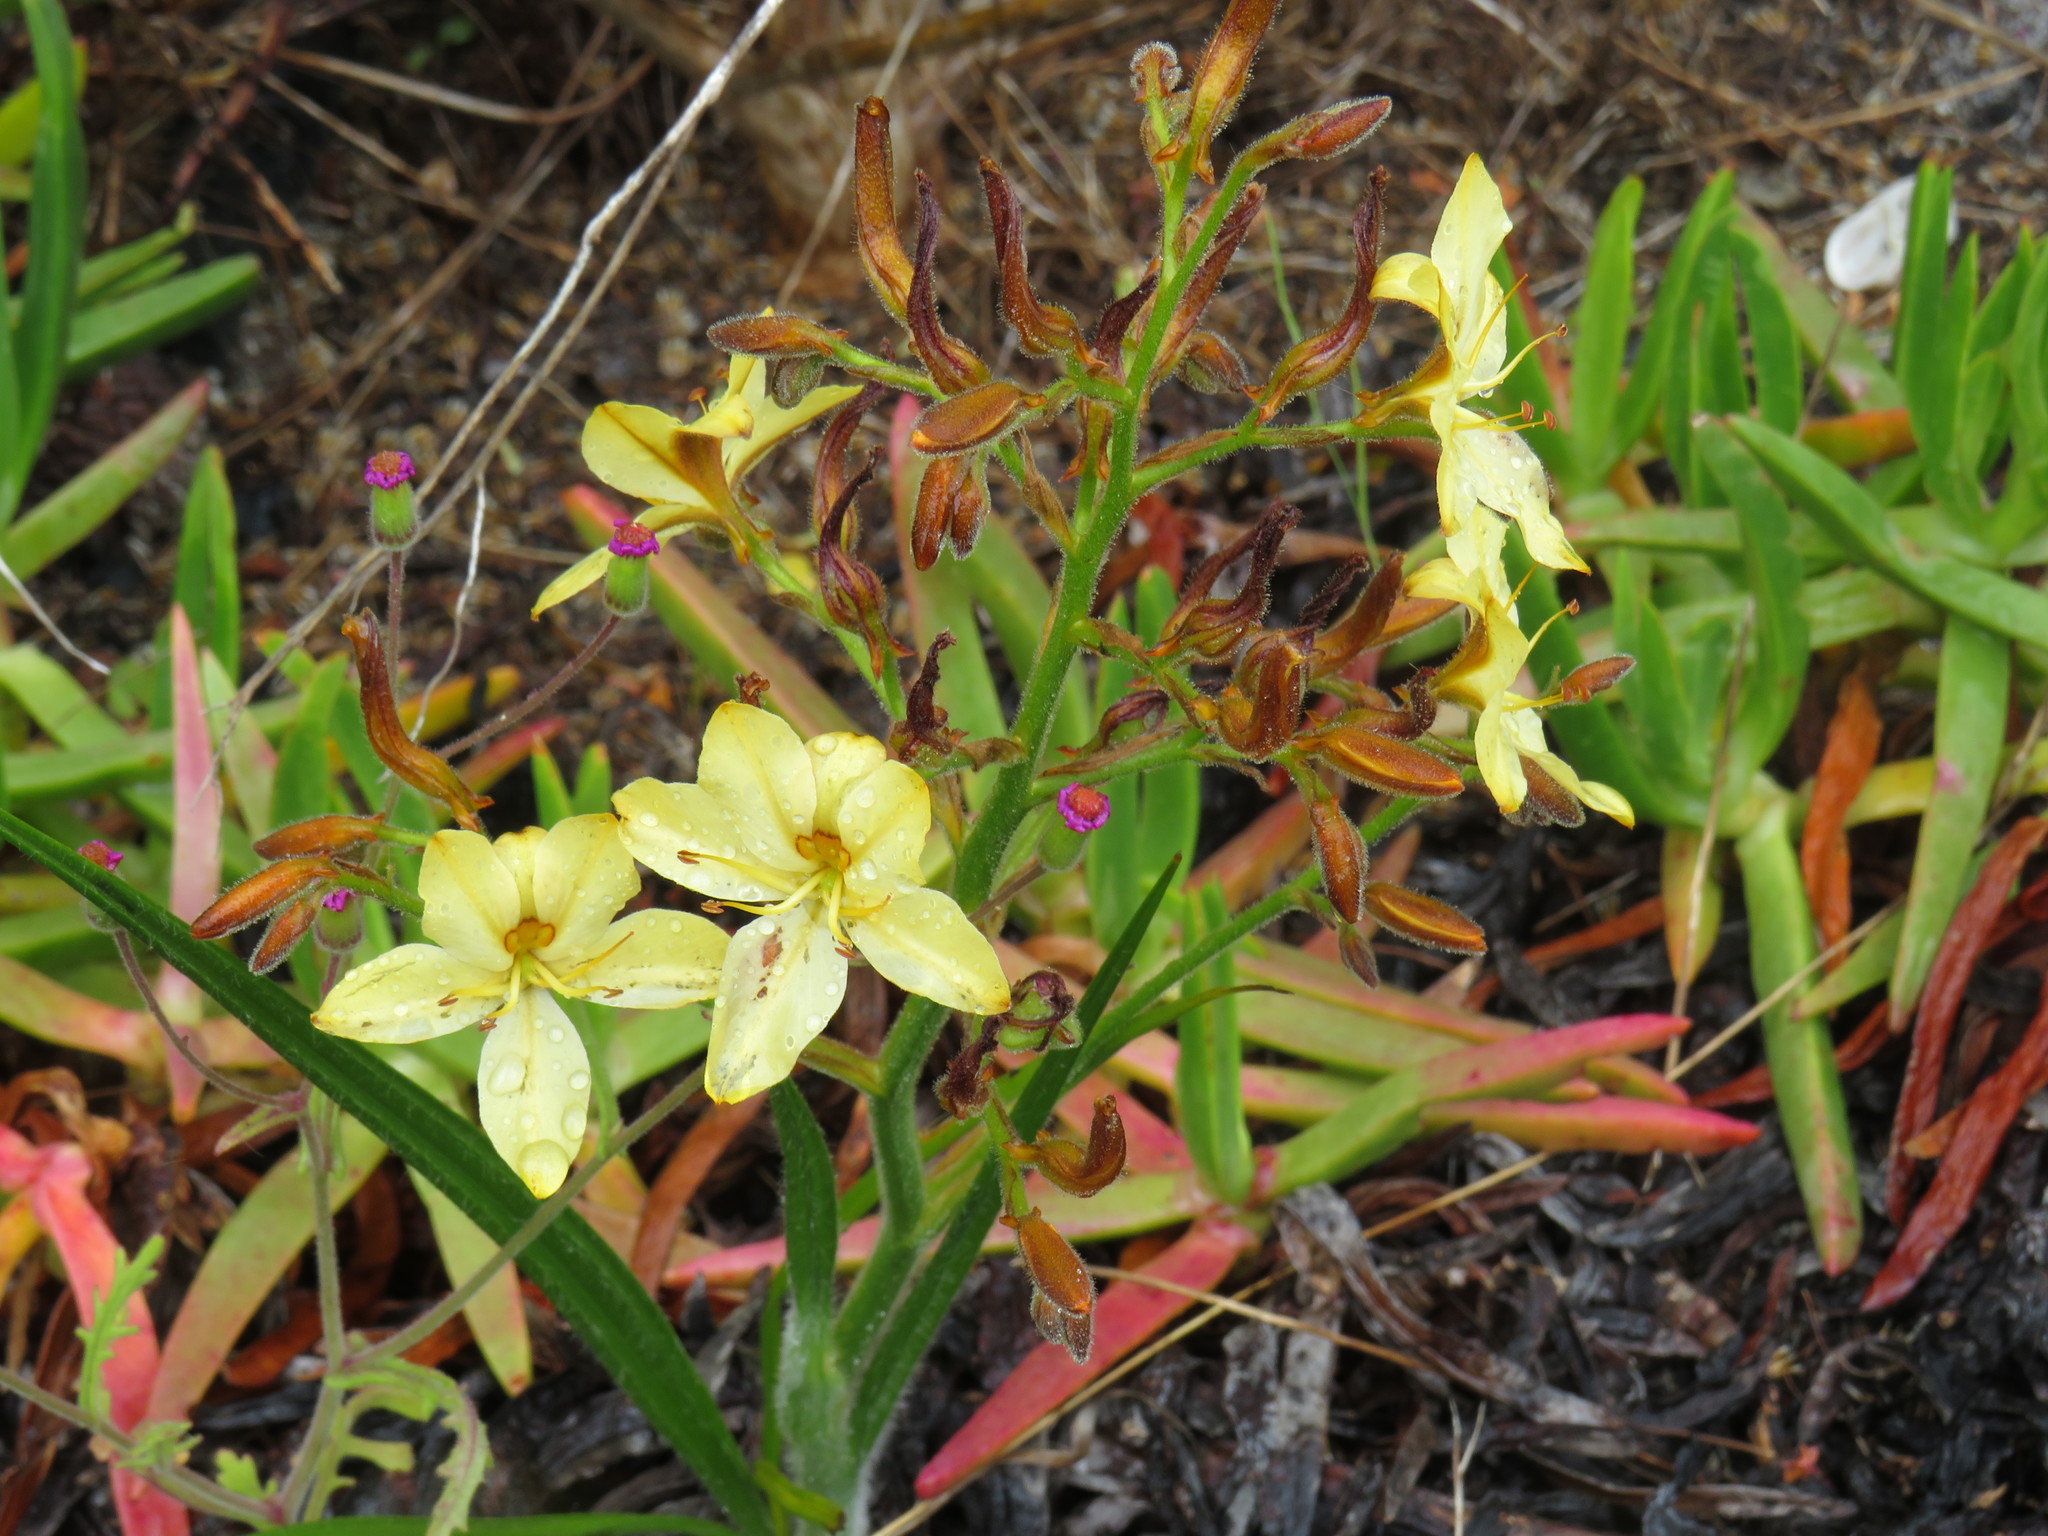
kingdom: Plantae
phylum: Tracheophyta
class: Liliopsida
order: Commelinales
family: Haemodoraceae
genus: Wachendorfia
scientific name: Wachendorfia paniculata
